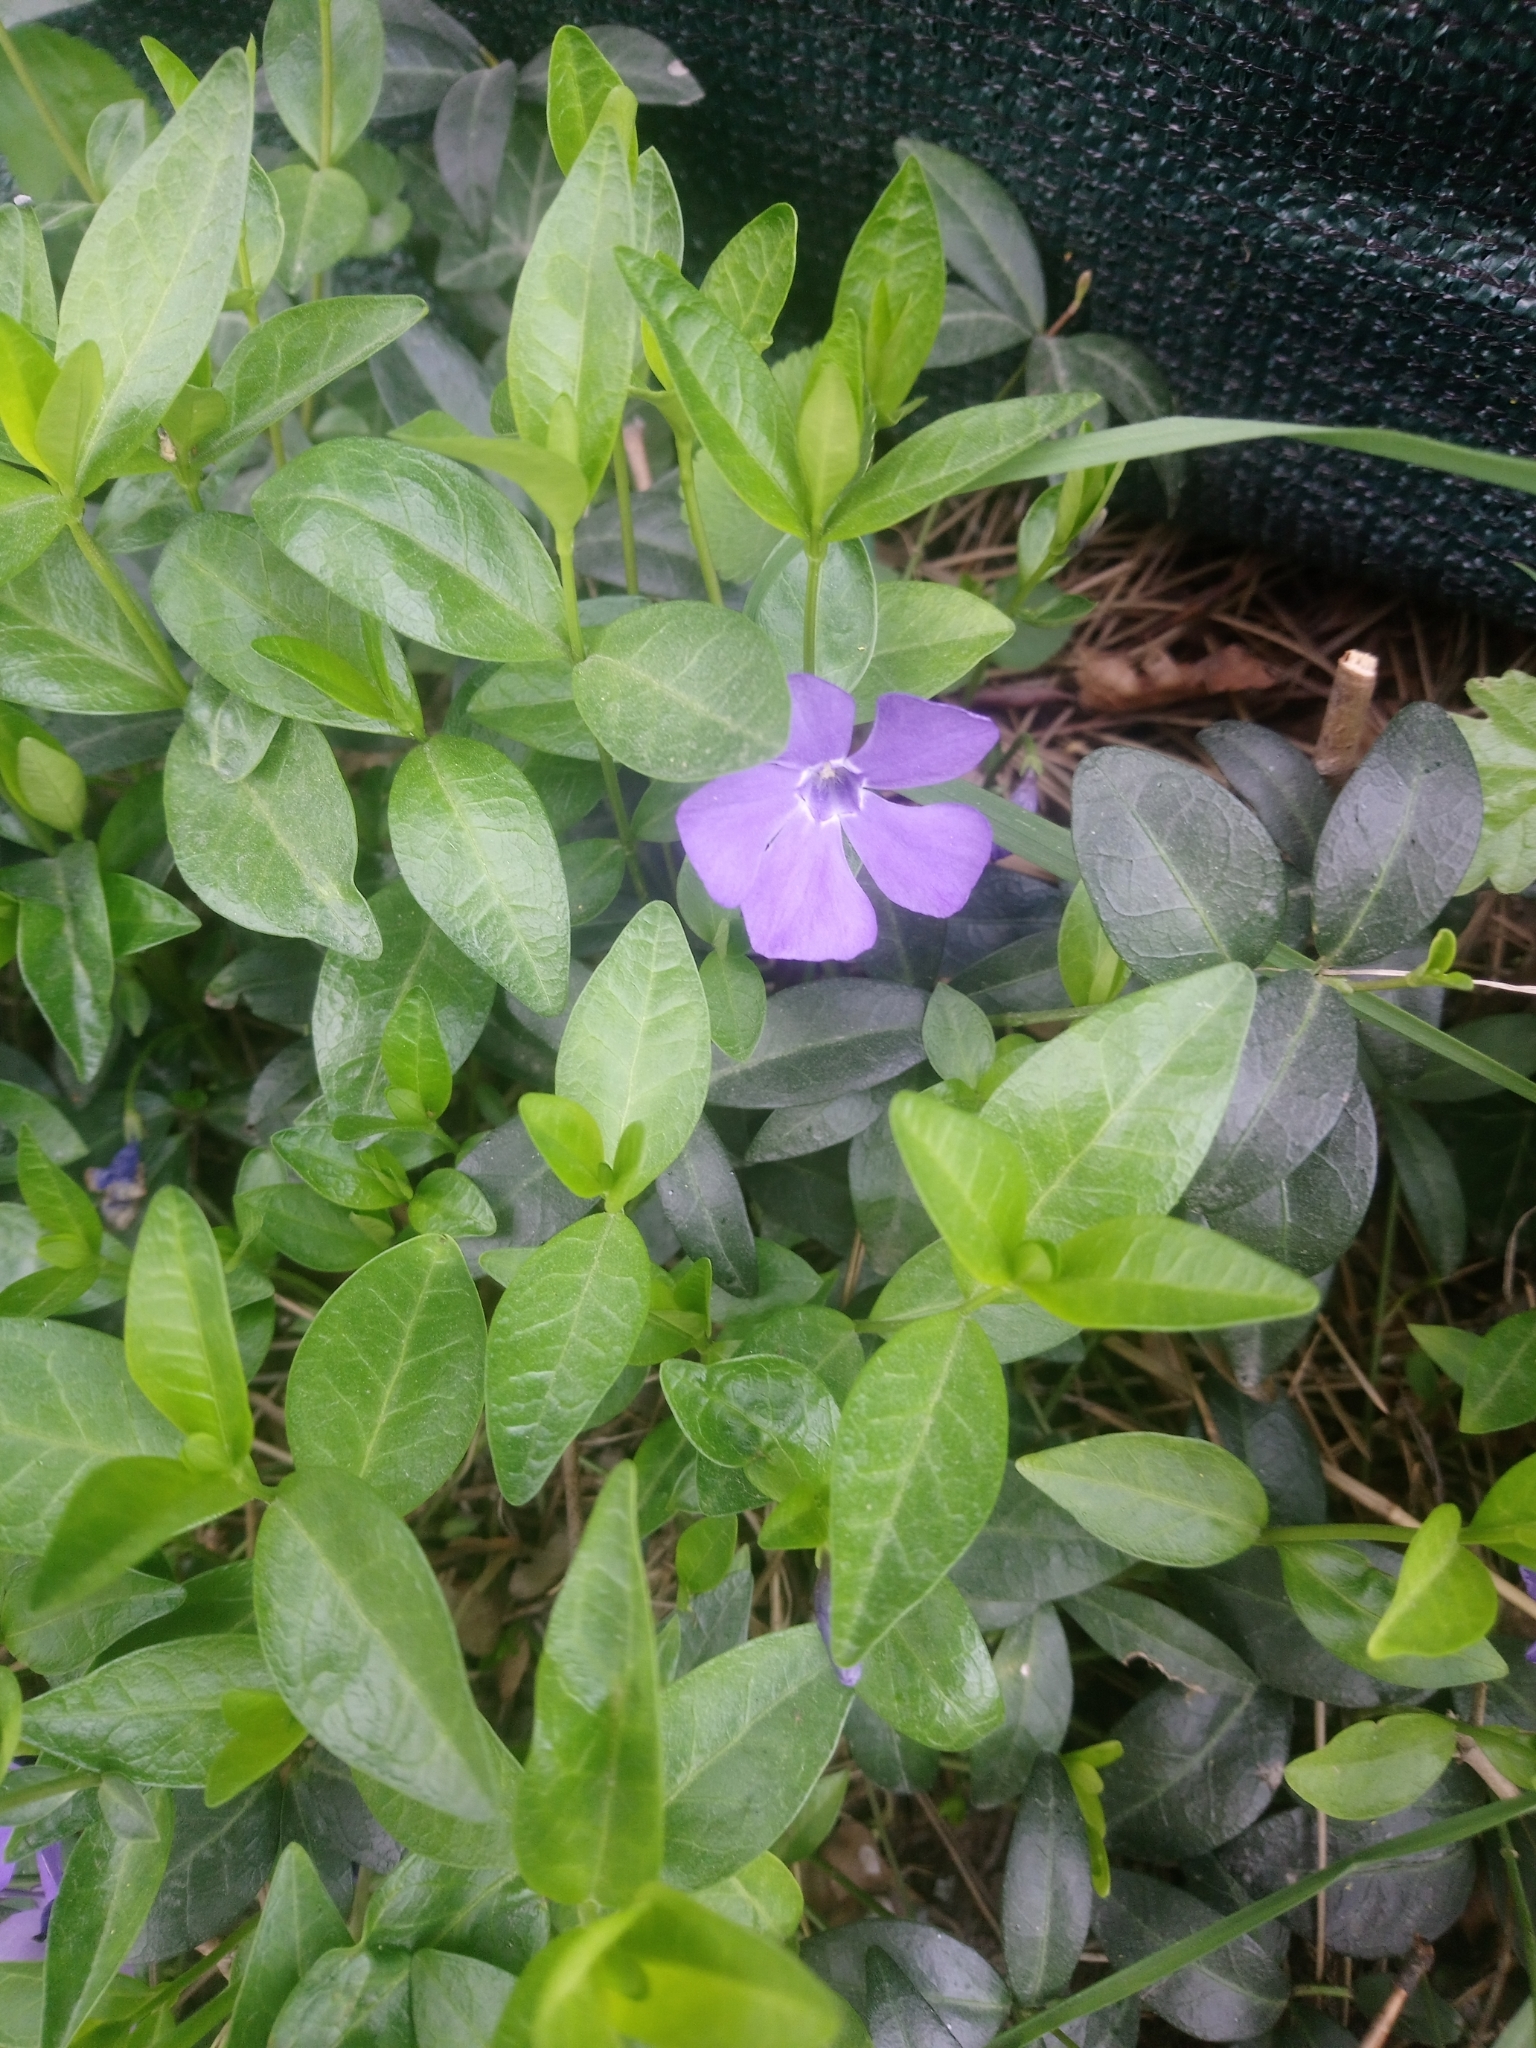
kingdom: Plantae
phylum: Tracheophyta
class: Magnoliopsida
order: Gentianales
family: Apocynaceae
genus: Vinca
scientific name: Vinca minor
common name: Lesser periwinkle
